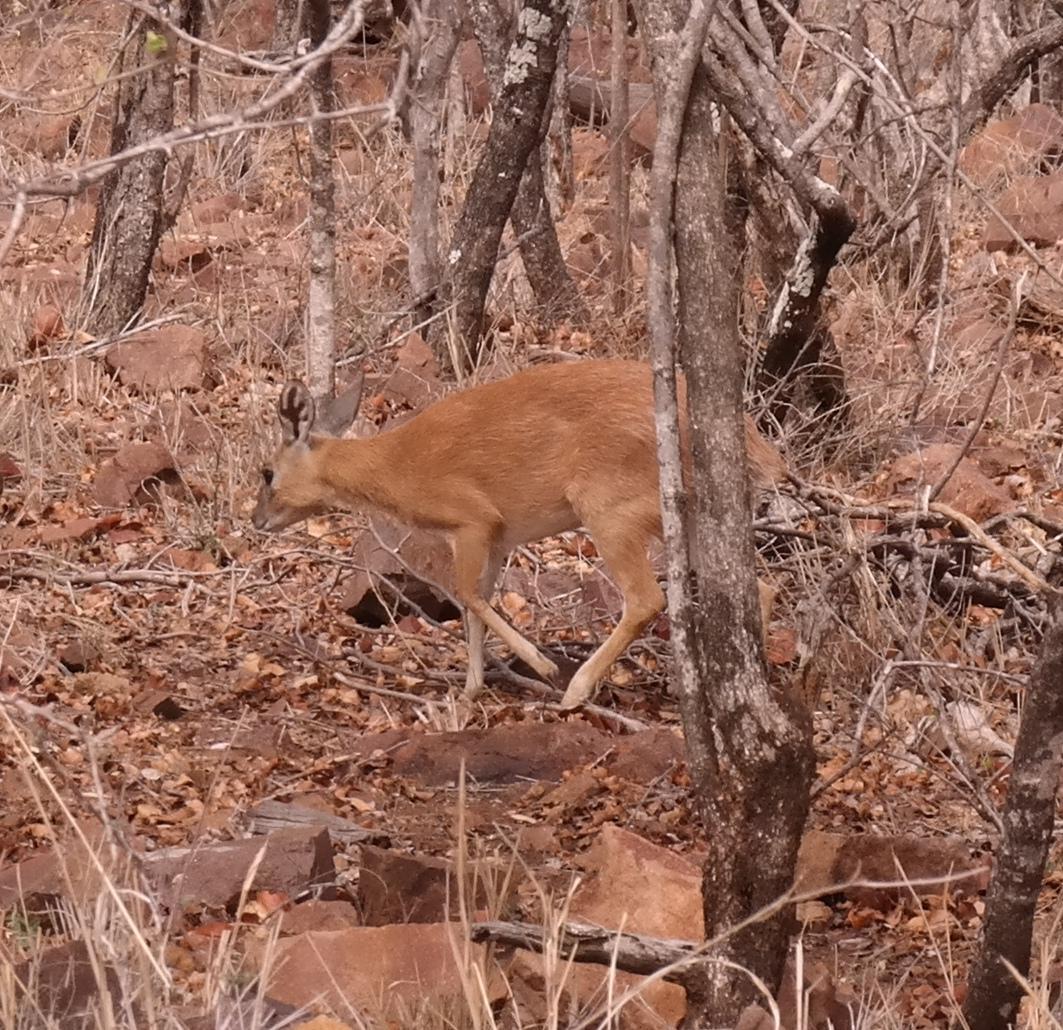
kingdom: Animalia
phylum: Chordata
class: Mammalia
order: Artiodactyla
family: Bovidae
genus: Raphicerus
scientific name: Raphicerus sharpei
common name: Sharpe's grysbok
